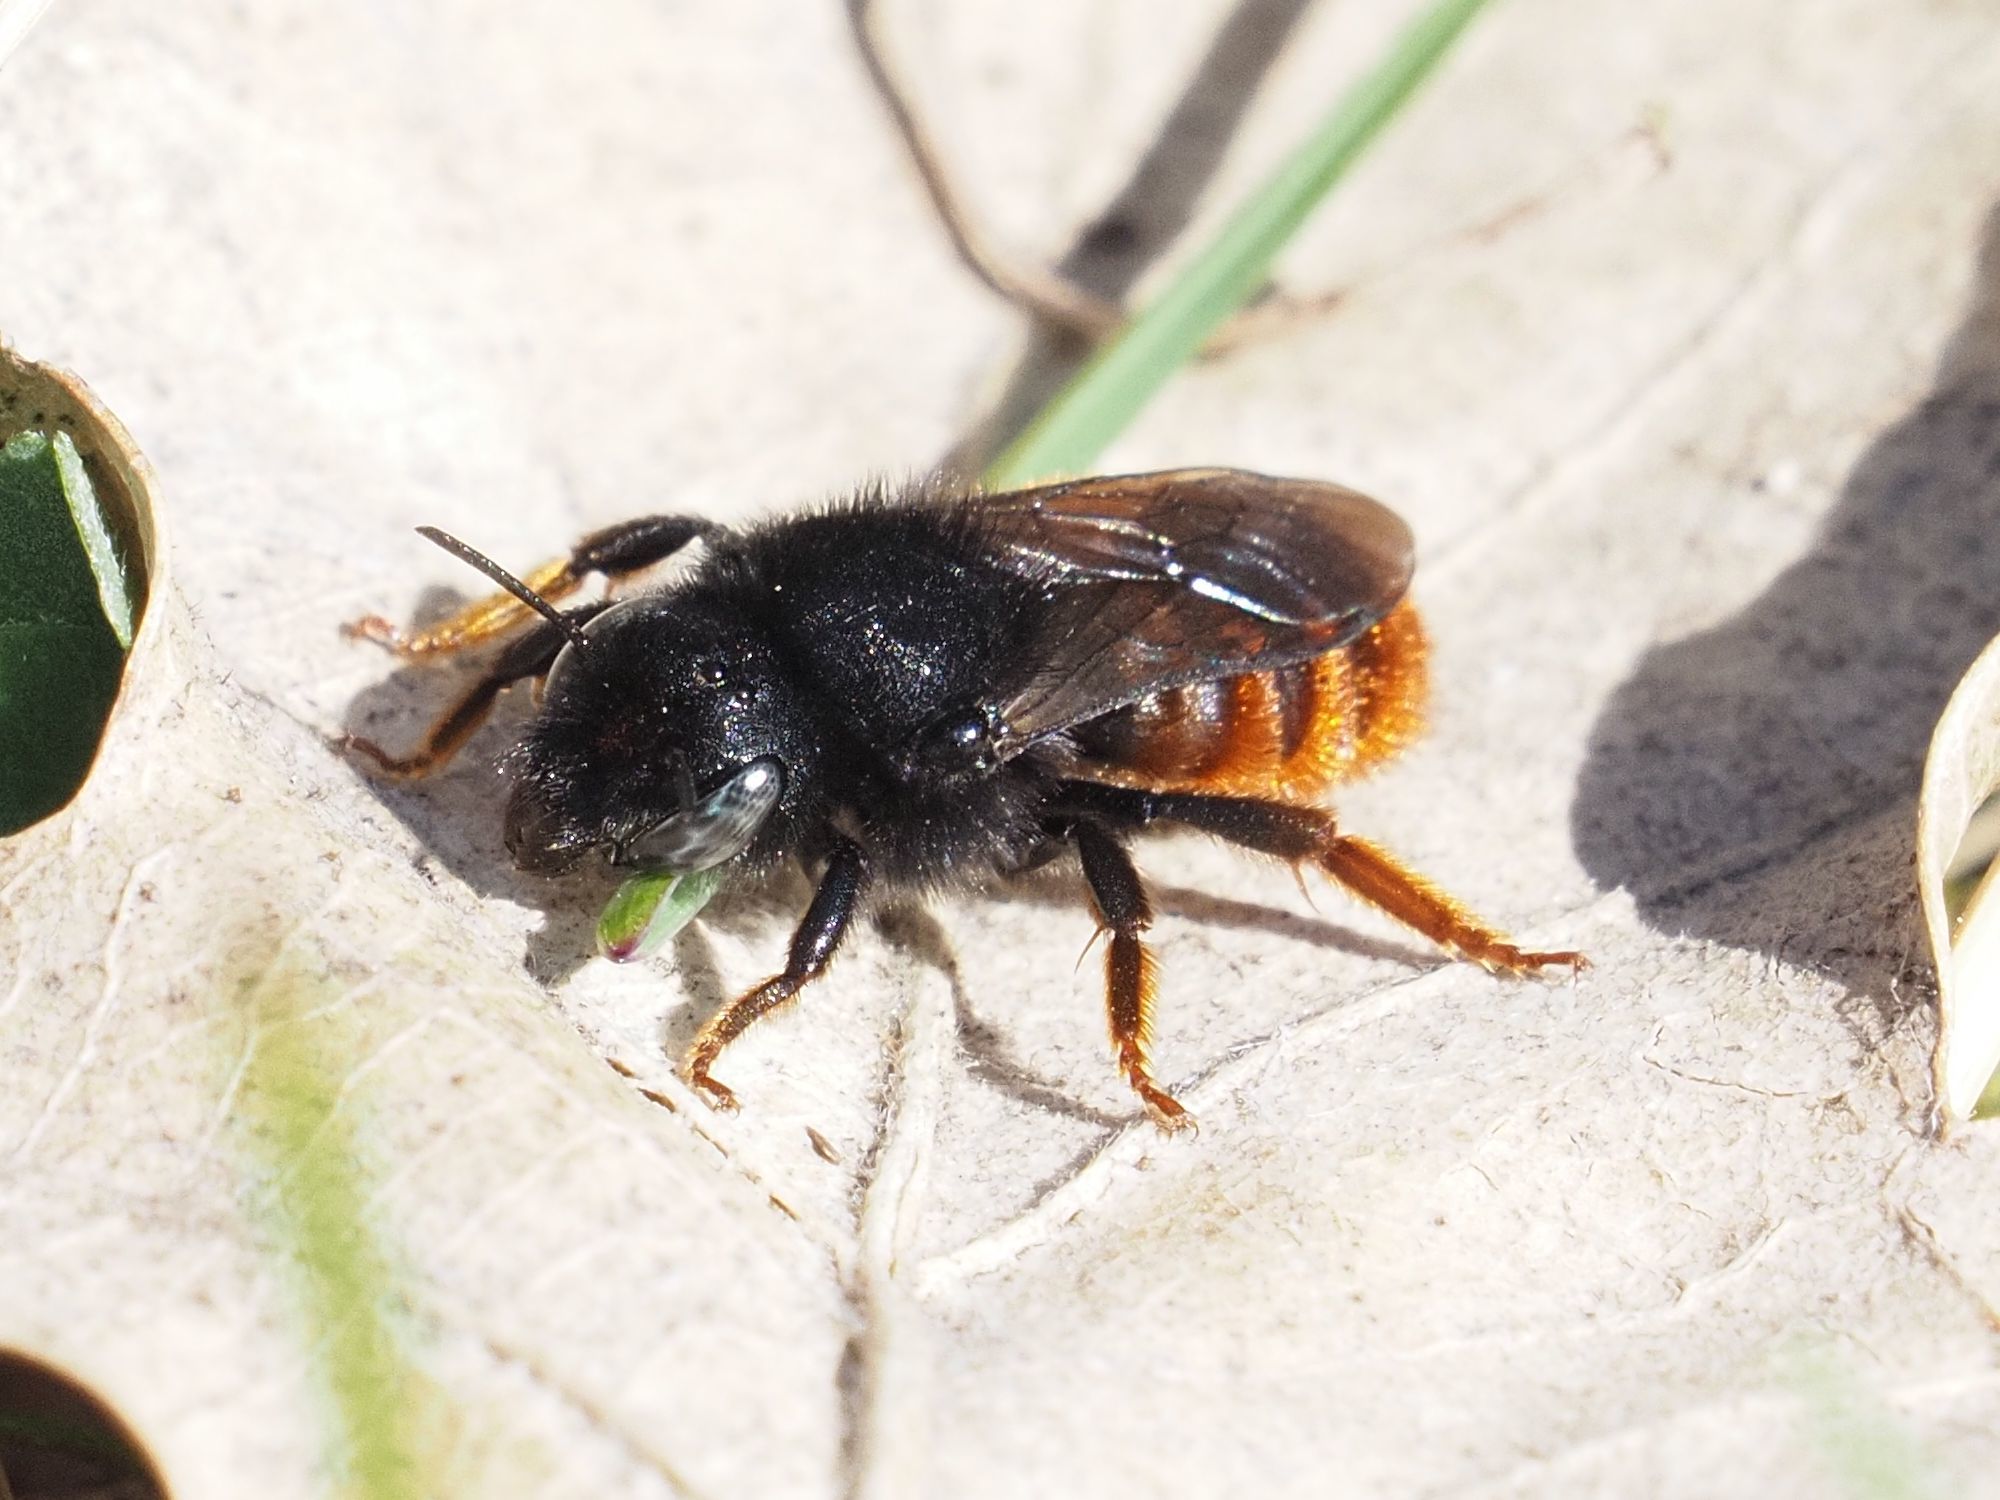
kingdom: Animalia
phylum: Arthropoda
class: Insecta
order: Hymenoptera
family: Megachilidae
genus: Osmia
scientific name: Osmia bicolor
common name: Red-tailed mason bee
